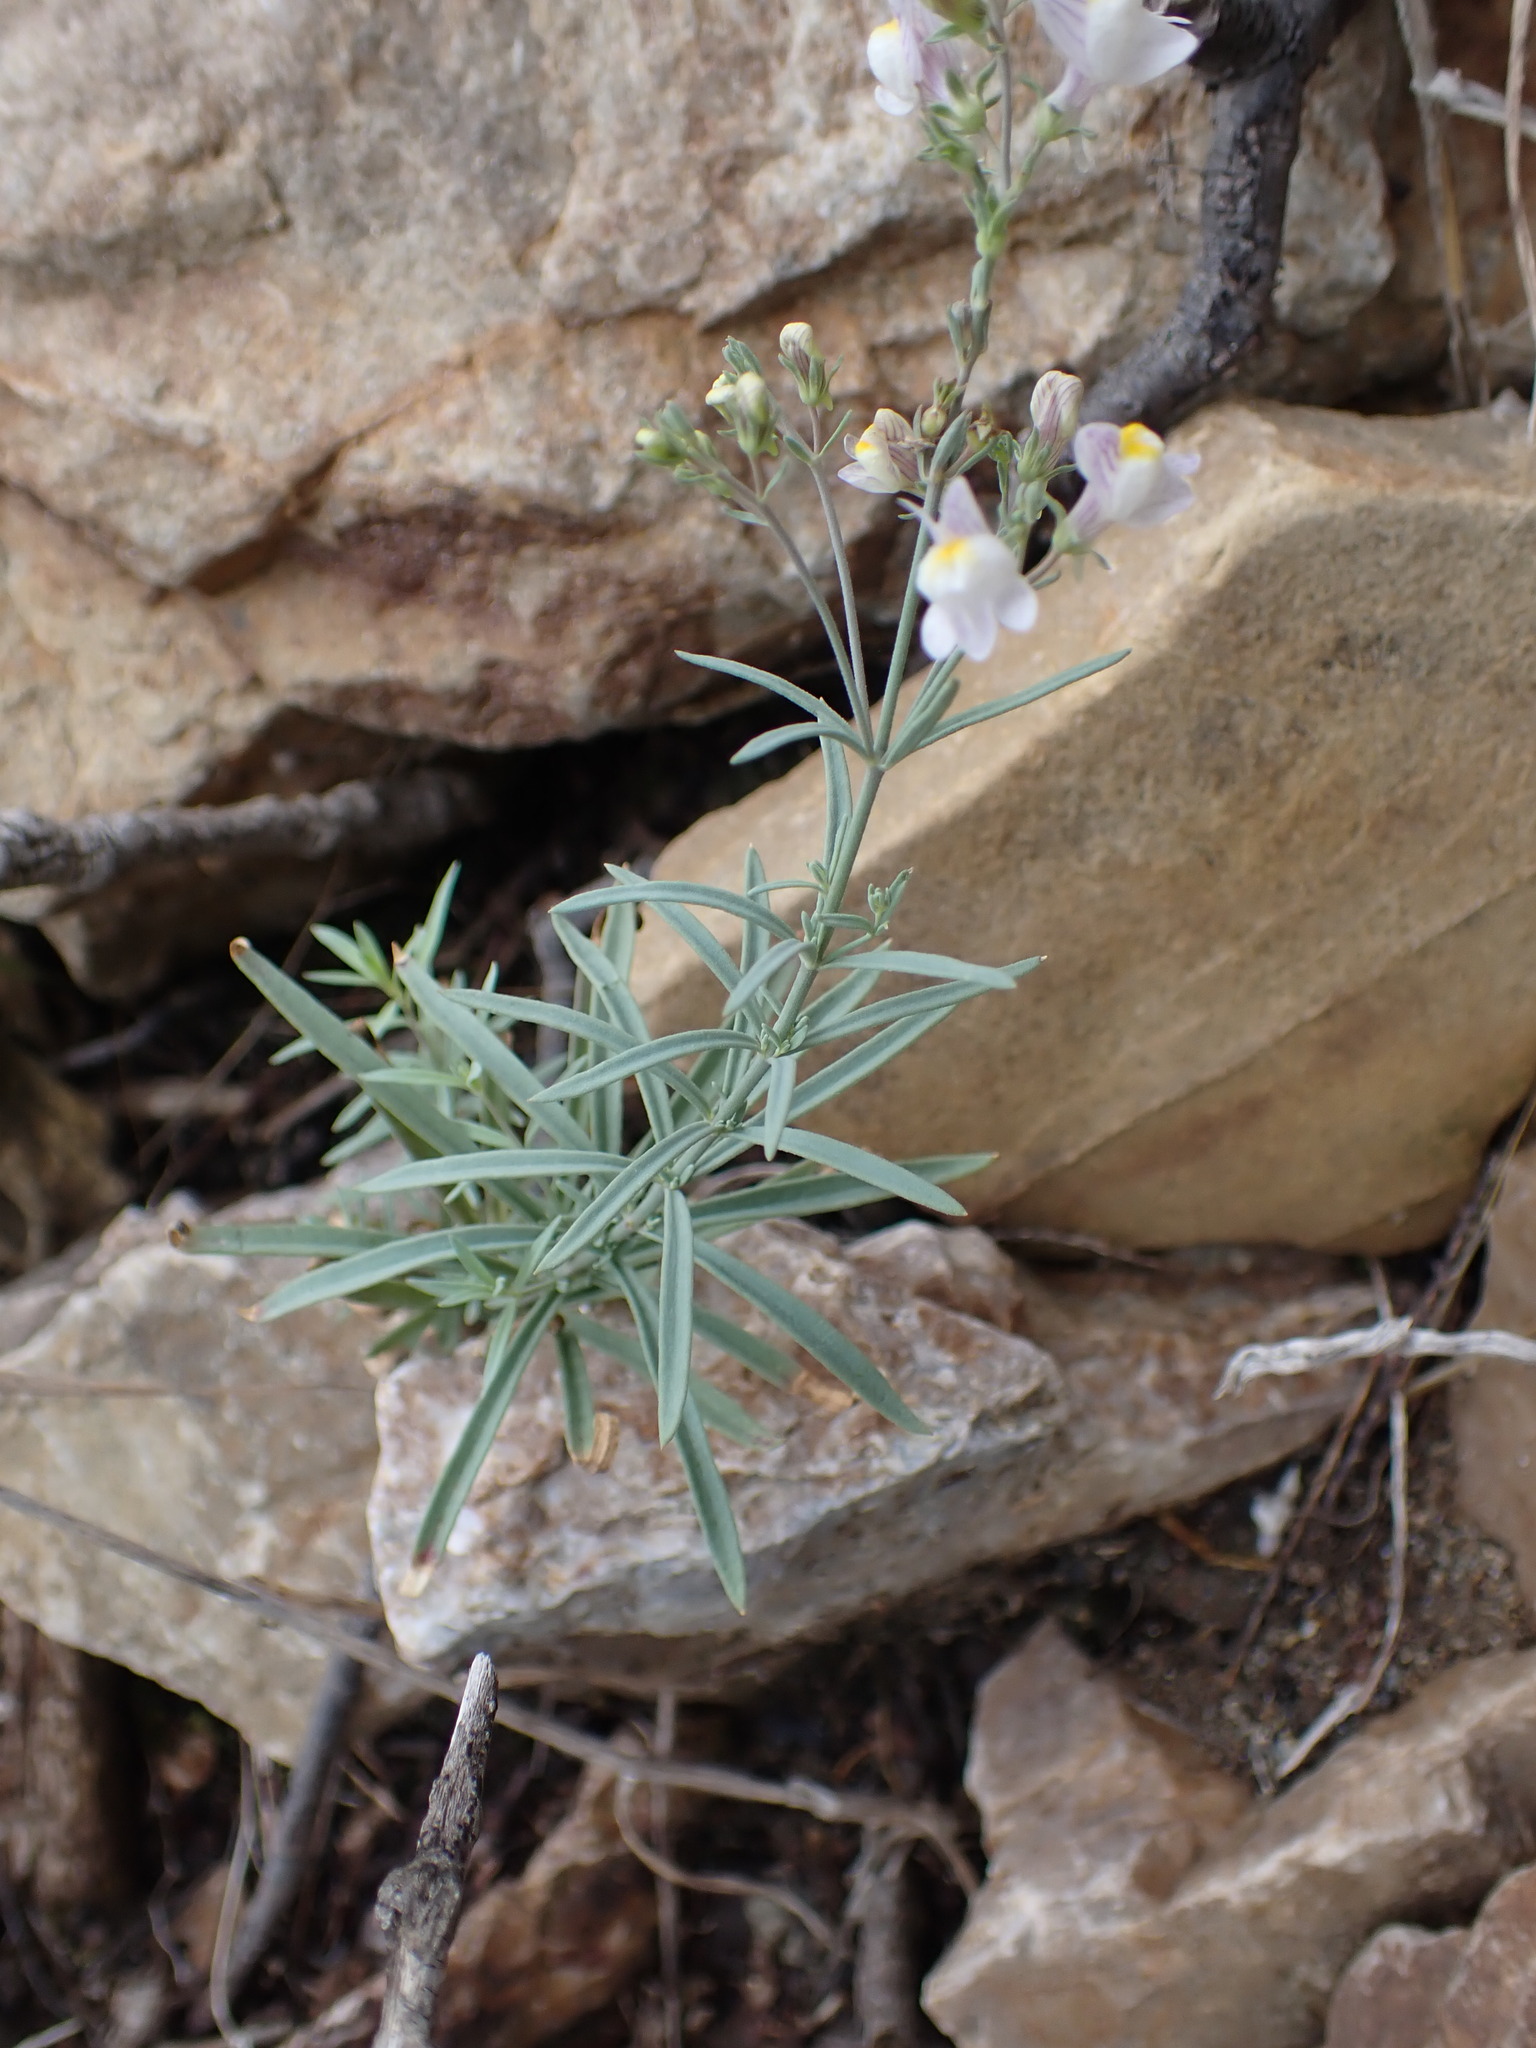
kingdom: Plantae
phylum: Tracheophyta
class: Magnoliopsida
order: Lamiales
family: Plantaginaceae
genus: Linaria
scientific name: Linaria repens
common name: Pale toadflax
